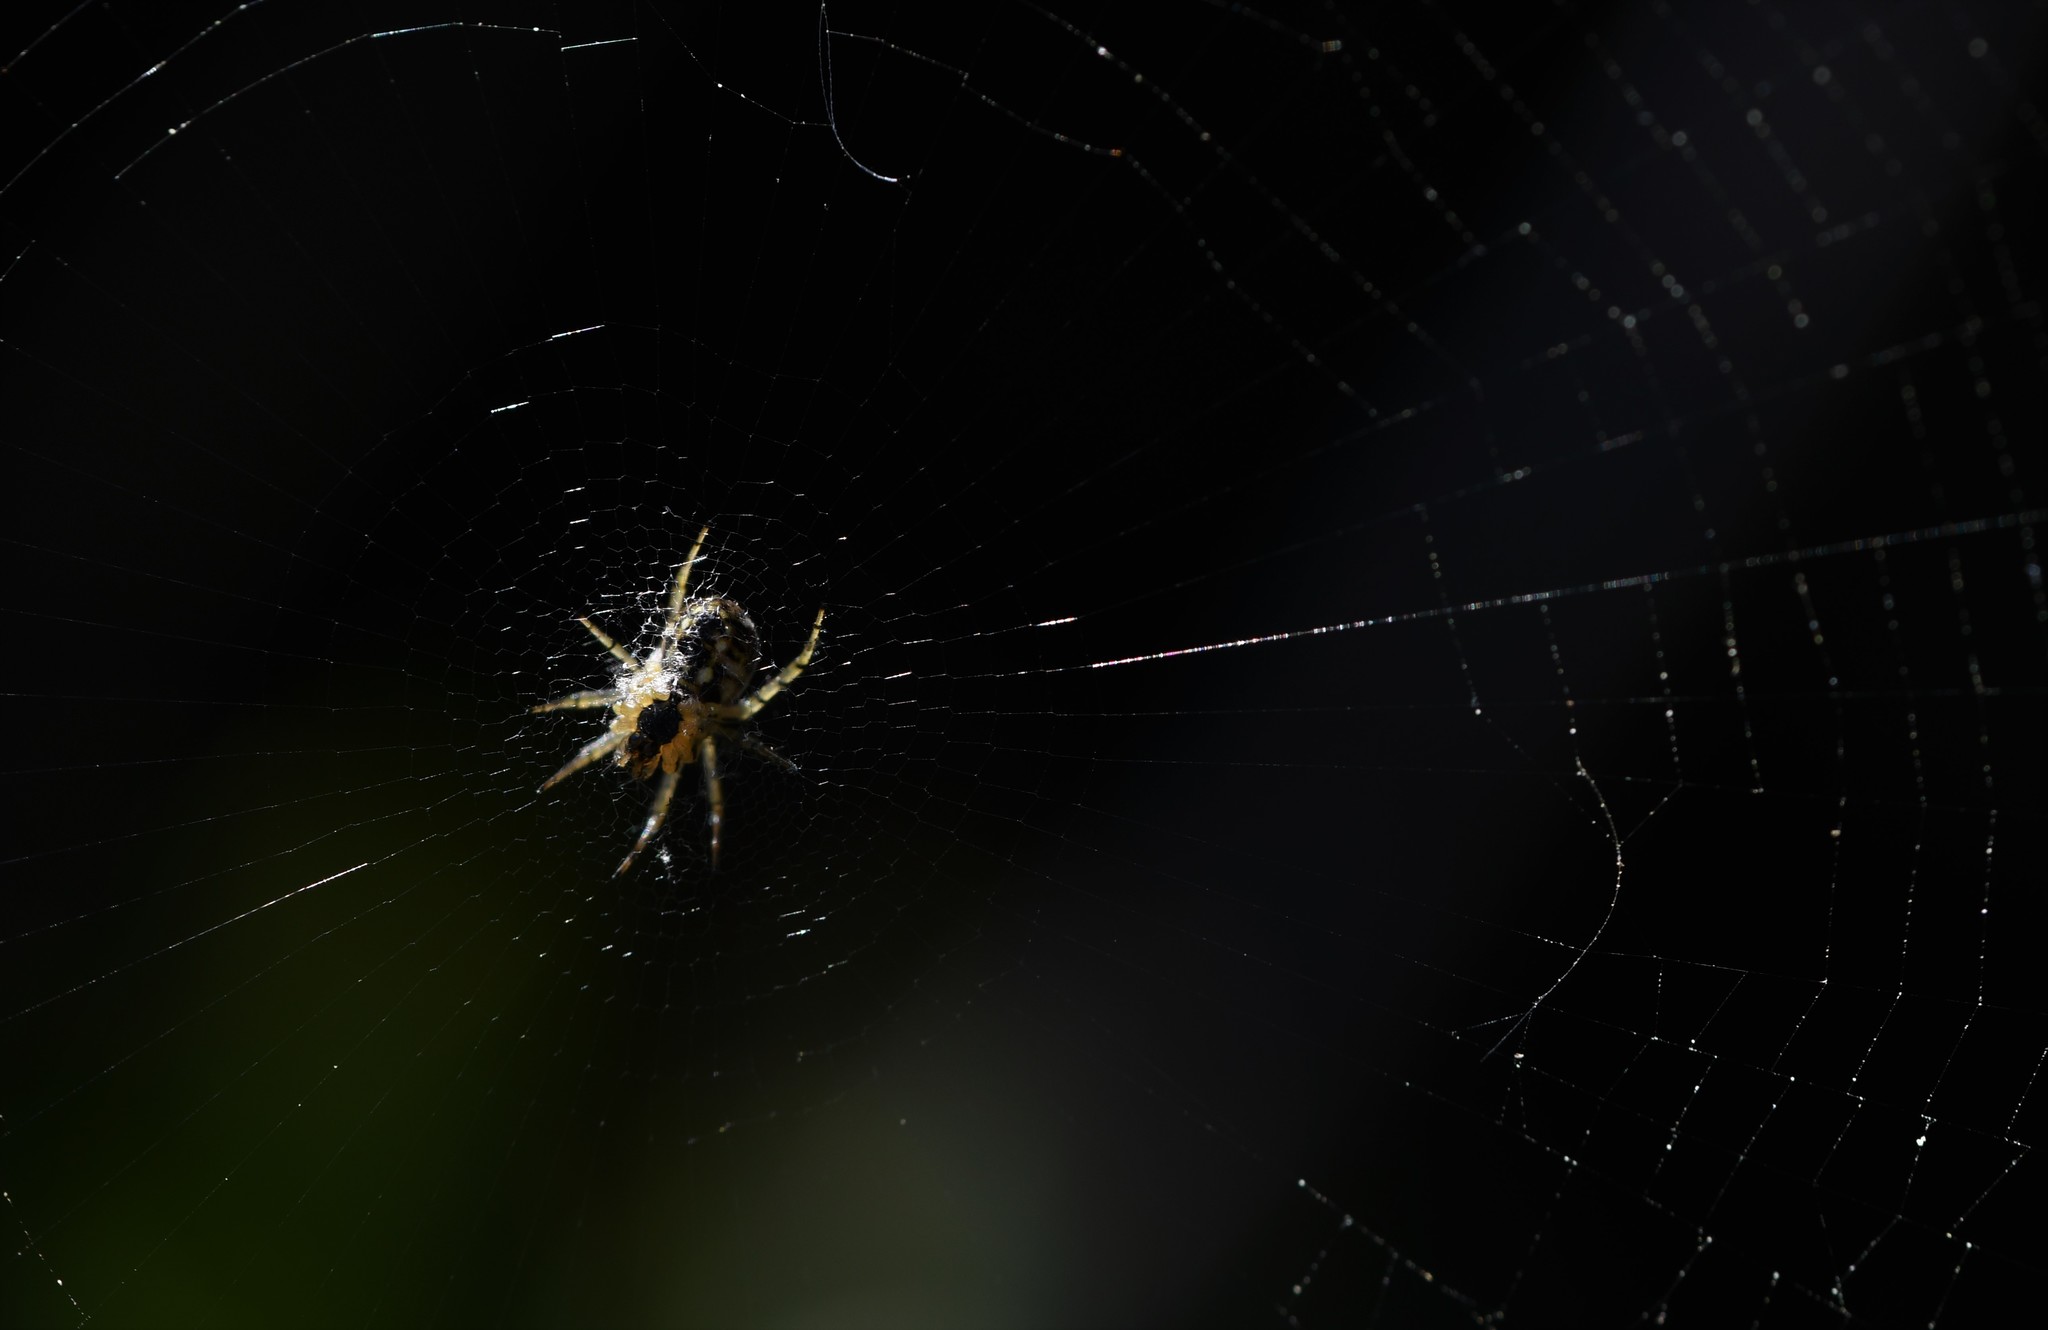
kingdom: Animalia
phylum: Arthropoda
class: Arachnida
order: Araneae
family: Araneidae
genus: Mangora
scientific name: Mangora acalypha
